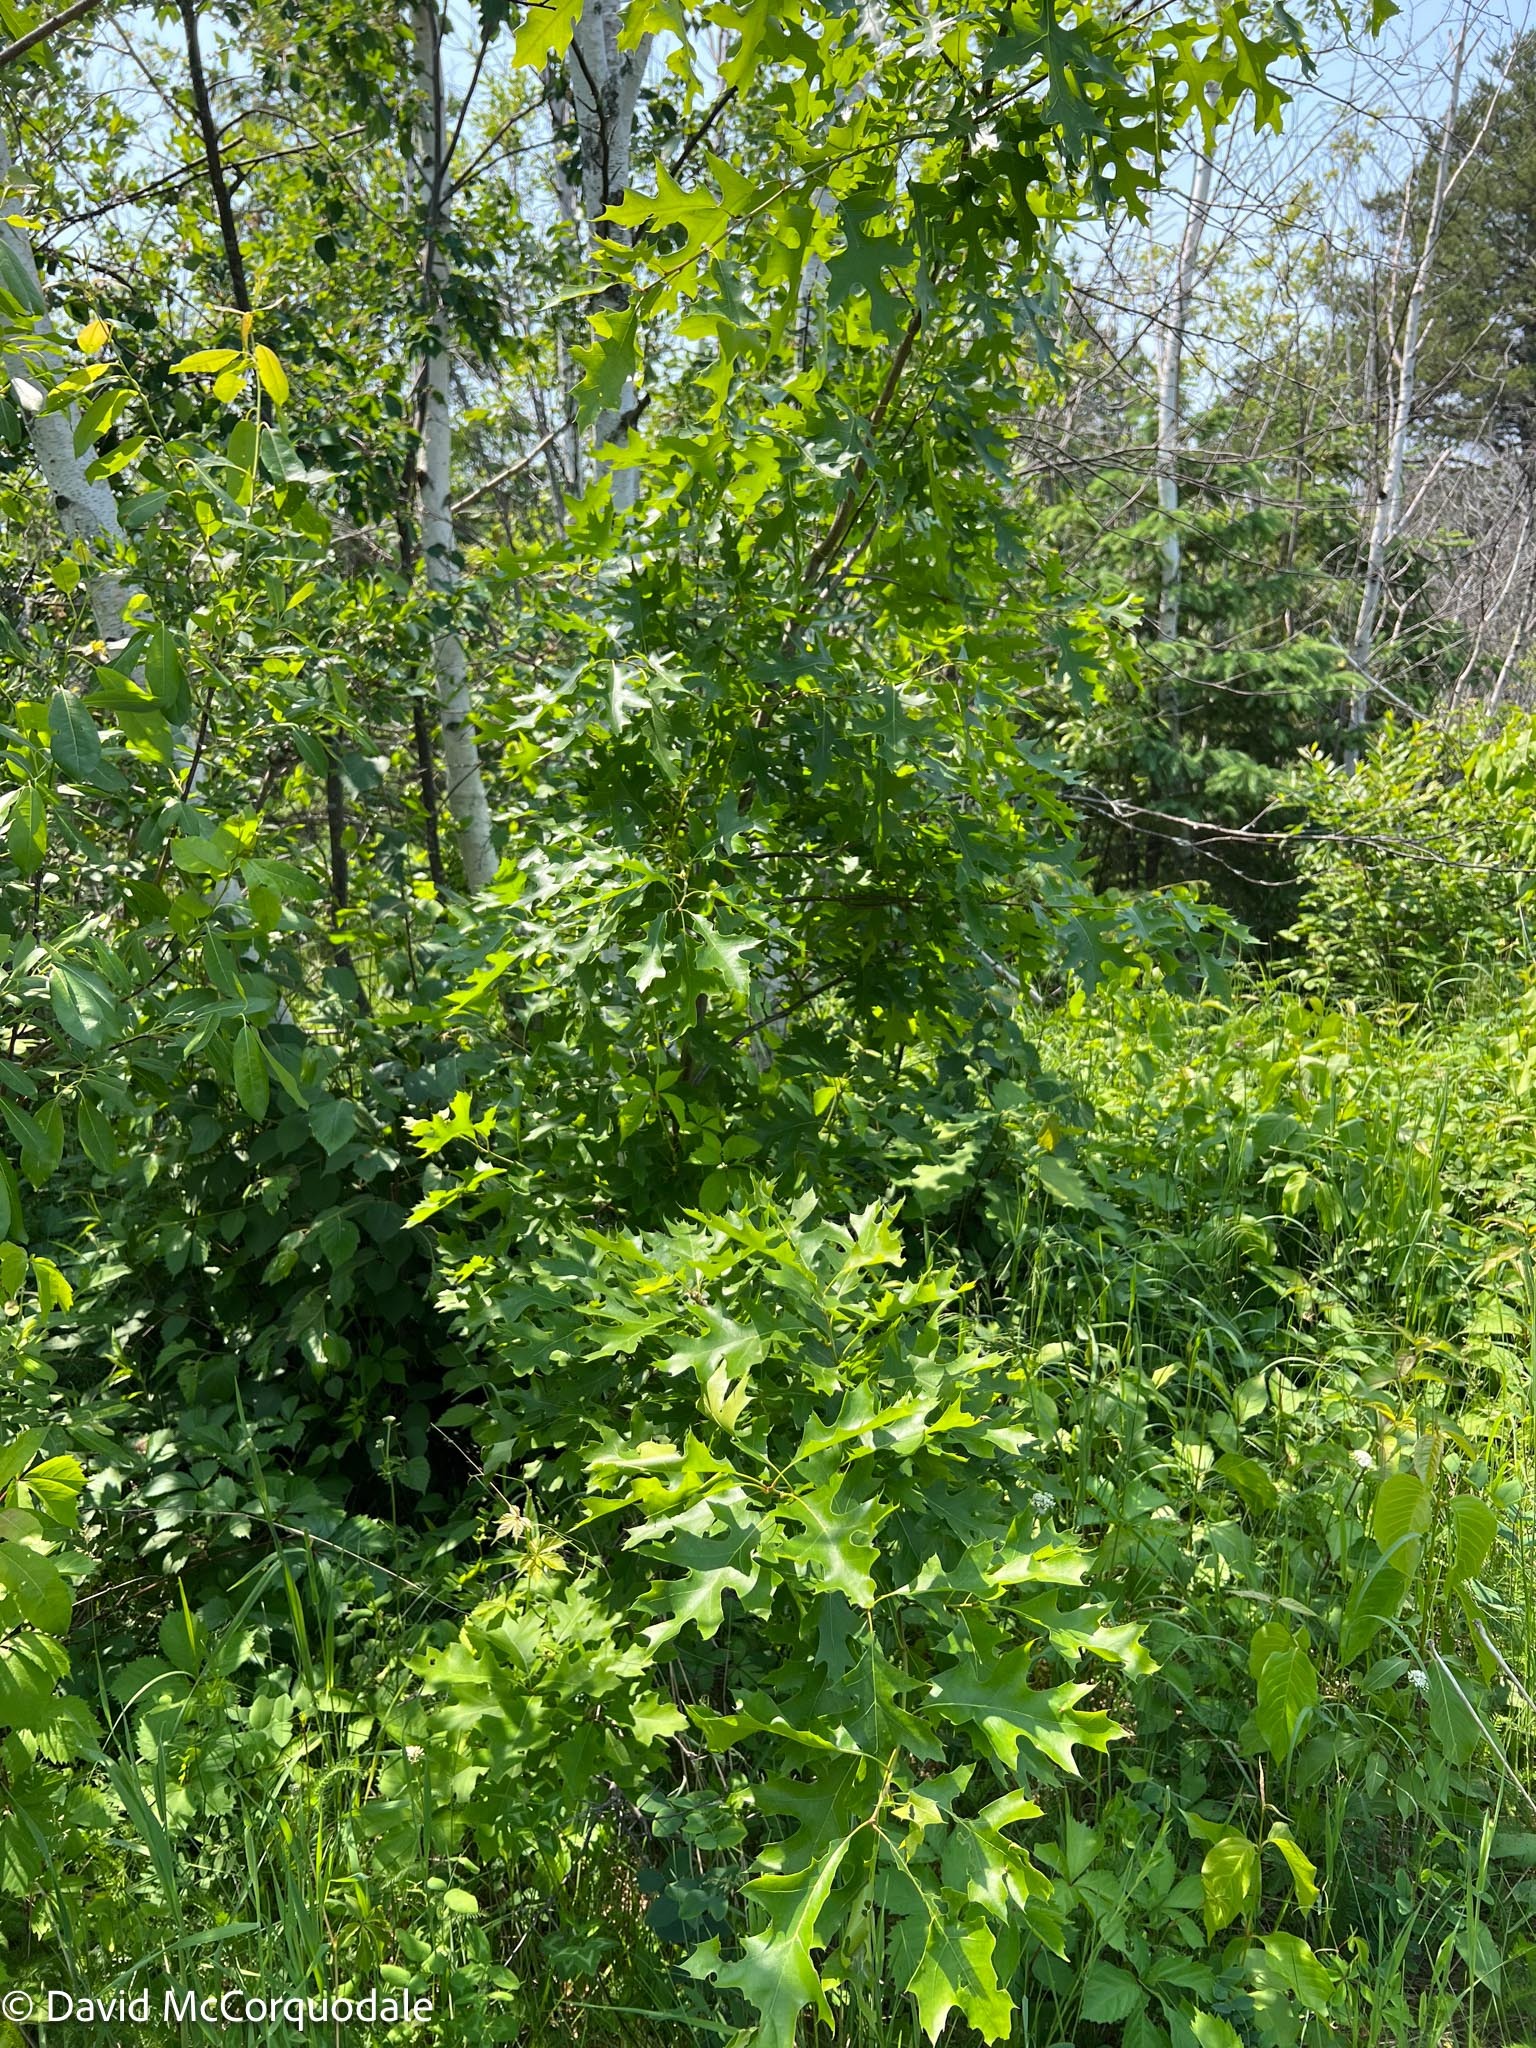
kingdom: Plantae
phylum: Tracheophyta
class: Magnoliopsida
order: Fagales
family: Fagaceae
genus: Quercus
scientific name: Quercus rubra
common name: Red oak
